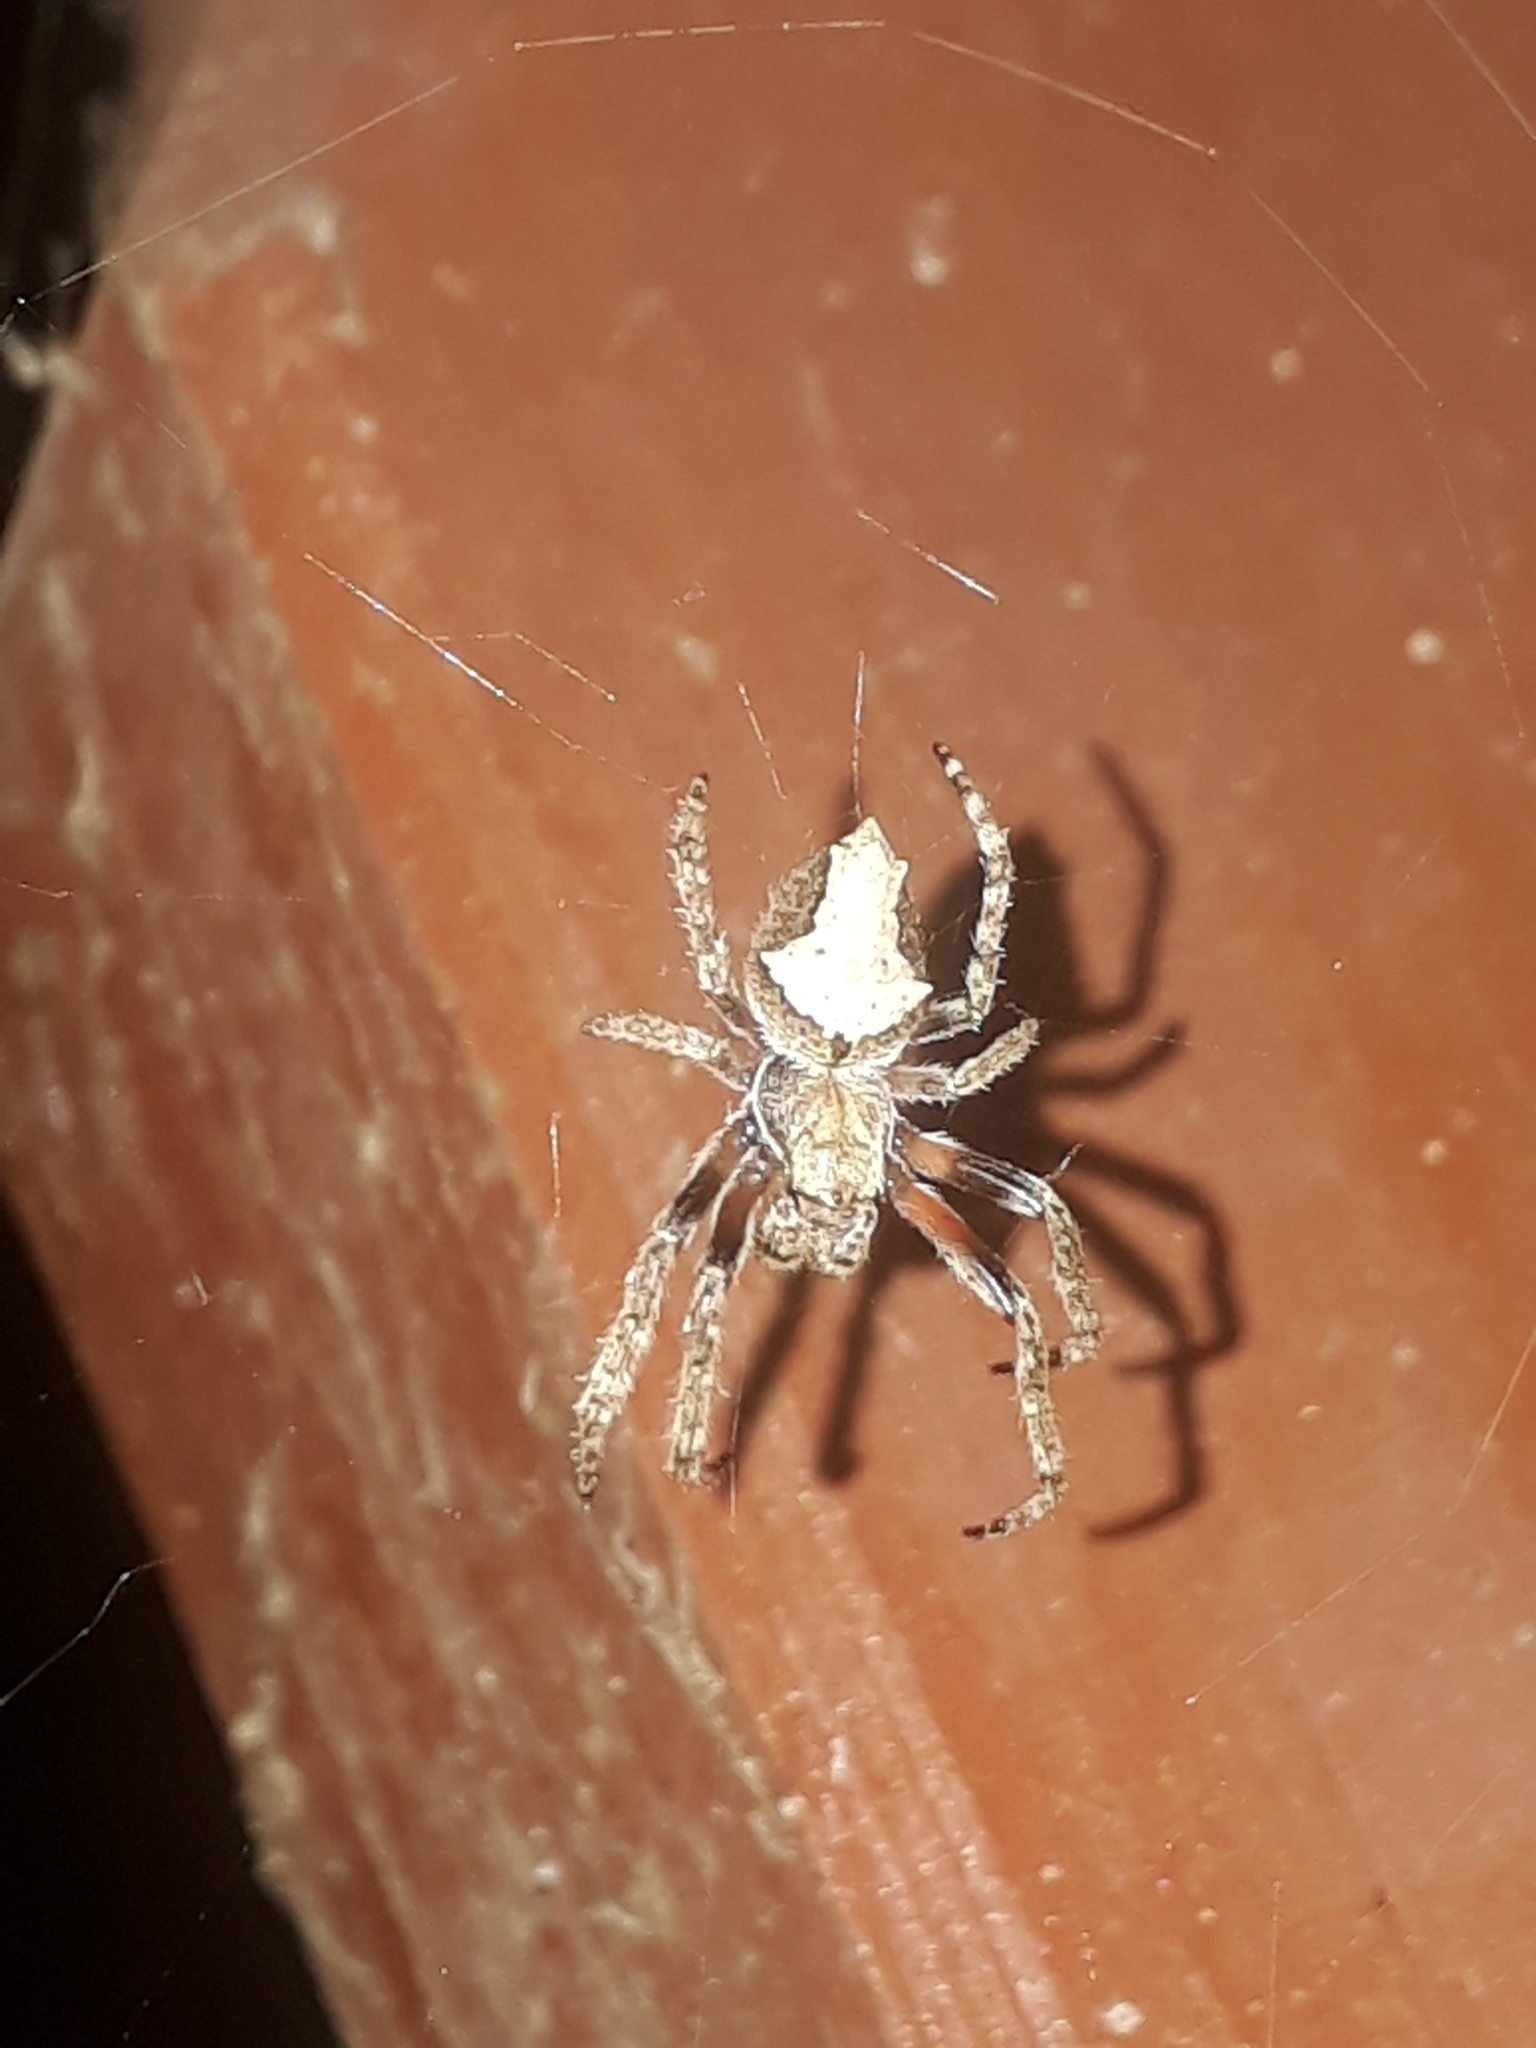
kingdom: Animalia
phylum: Arthropoda
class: Arachnida
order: Araneae
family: Araneidae
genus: Eriophora
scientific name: Eriophora pustulosa
